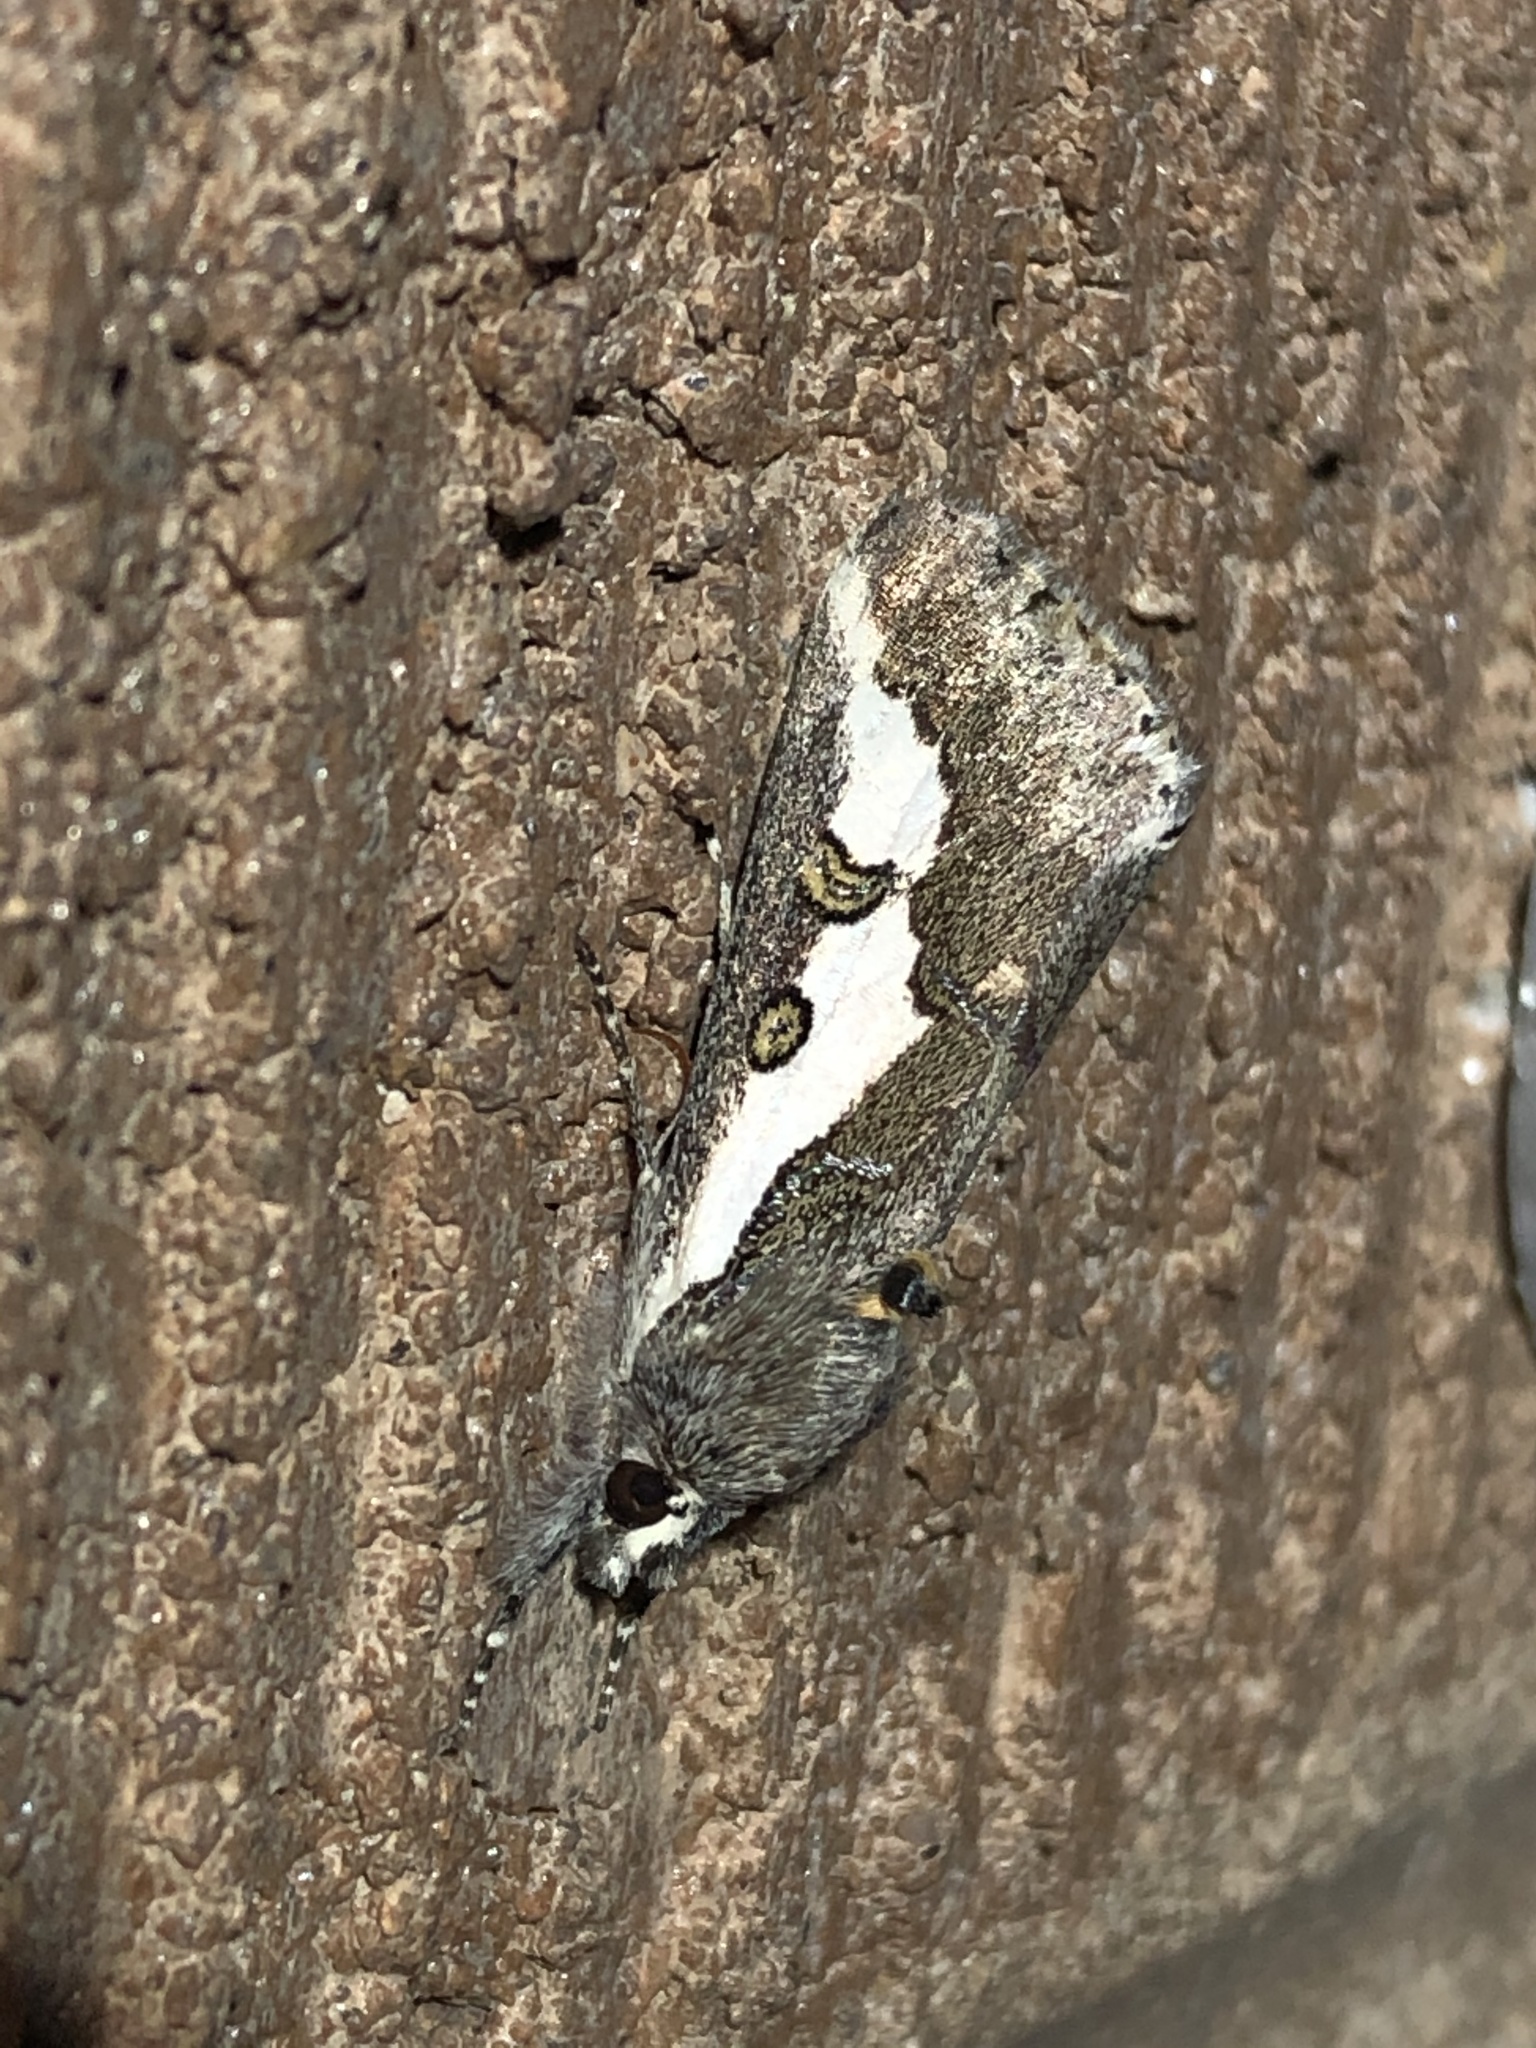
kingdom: Animalia
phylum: Arthropoda
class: Insecta
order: Lepidoptera
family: Noctuidae
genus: Euscirrhopterus
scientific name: Euscirrhopterus gloveri
